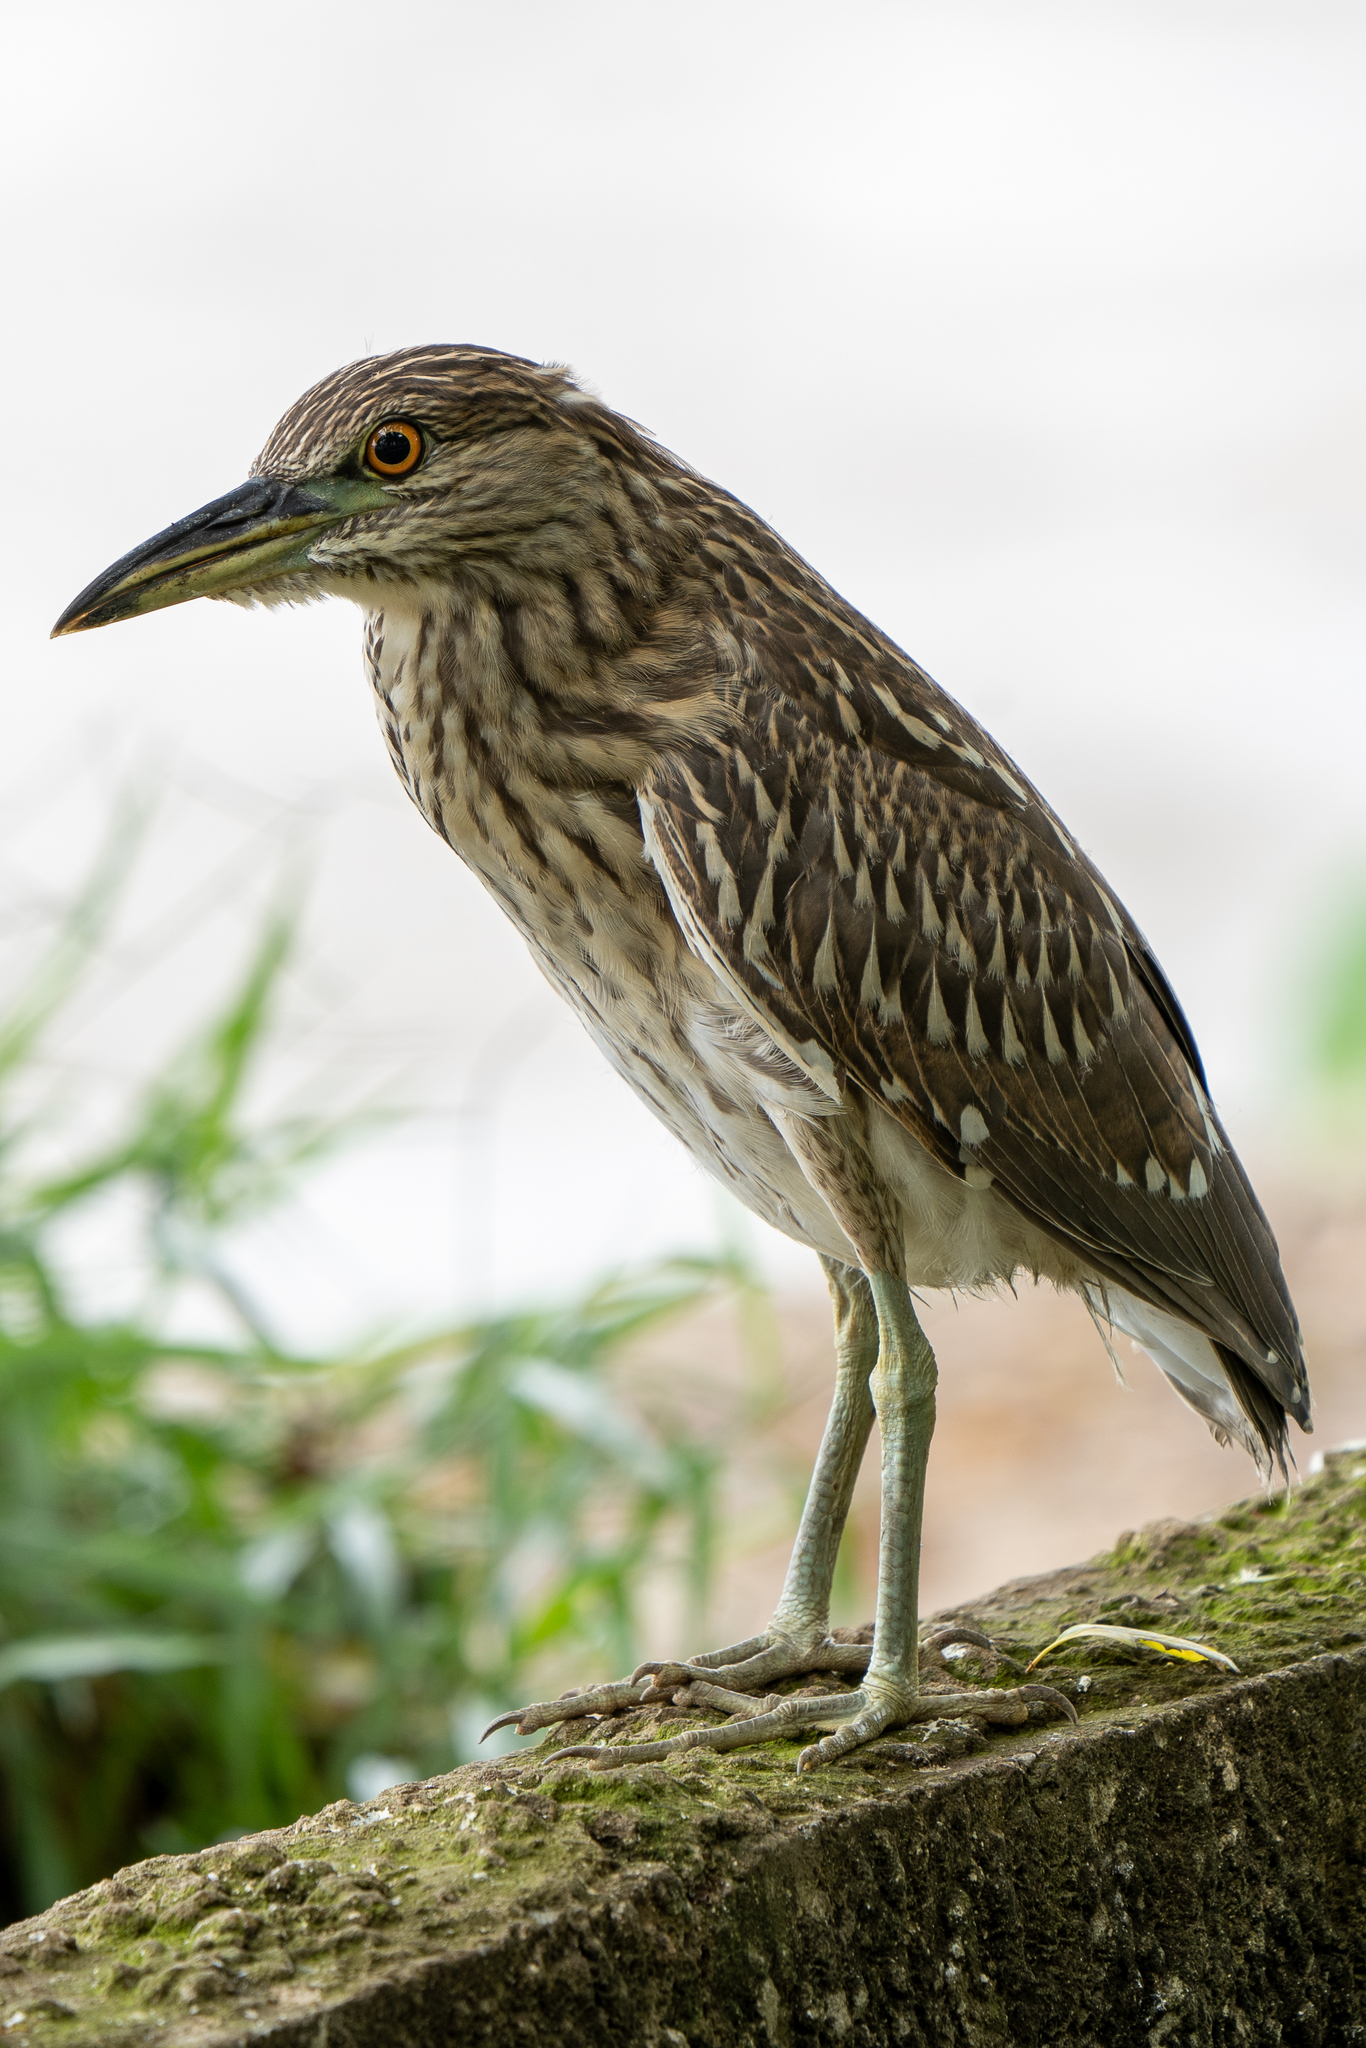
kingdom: Animalia
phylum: Chordata
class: Aves
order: Pelecaniformes
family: Ardeidae
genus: Nycticorax
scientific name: Nycticorax nycticorax
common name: Black-crowned night heron
